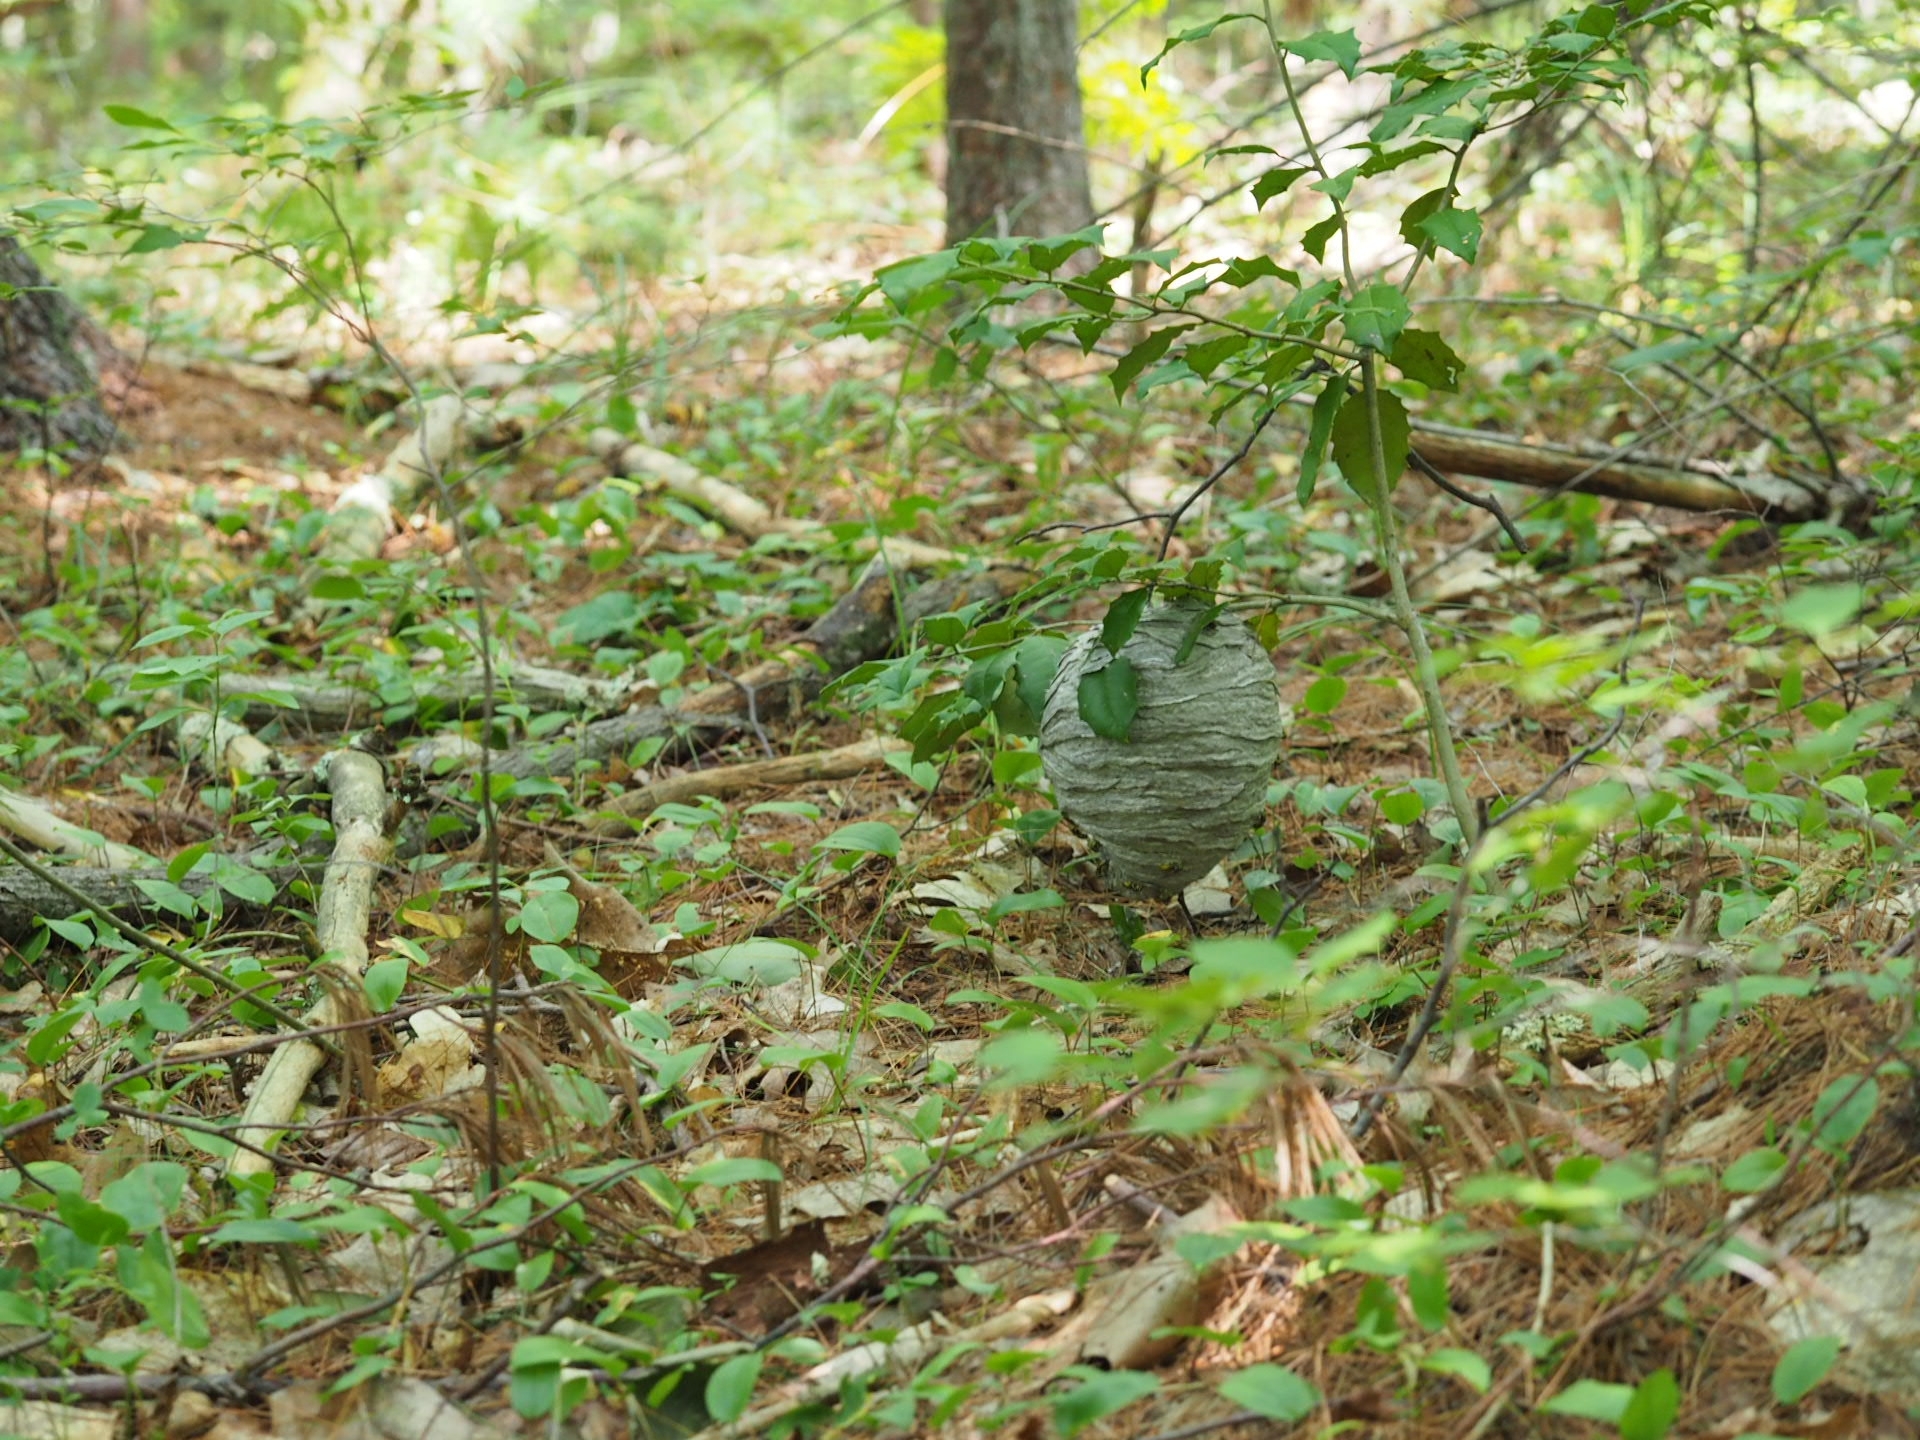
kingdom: Animalia
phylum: Arthropoda
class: Insecta
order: Hymenoptera
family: Vespidae
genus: Dolichovespula
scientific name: Dolichovespula arenaria
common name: Aerial yellowjacket
